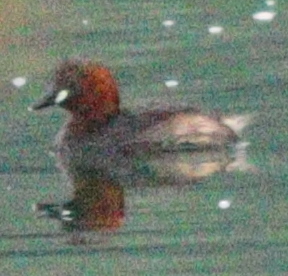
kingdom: Animalia
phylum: Chordata
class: Aves
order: Podicipediformes
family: Podicipedidae
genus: Tachybaptus
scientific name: Tachybaptus ruficollis
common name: Little grebe
